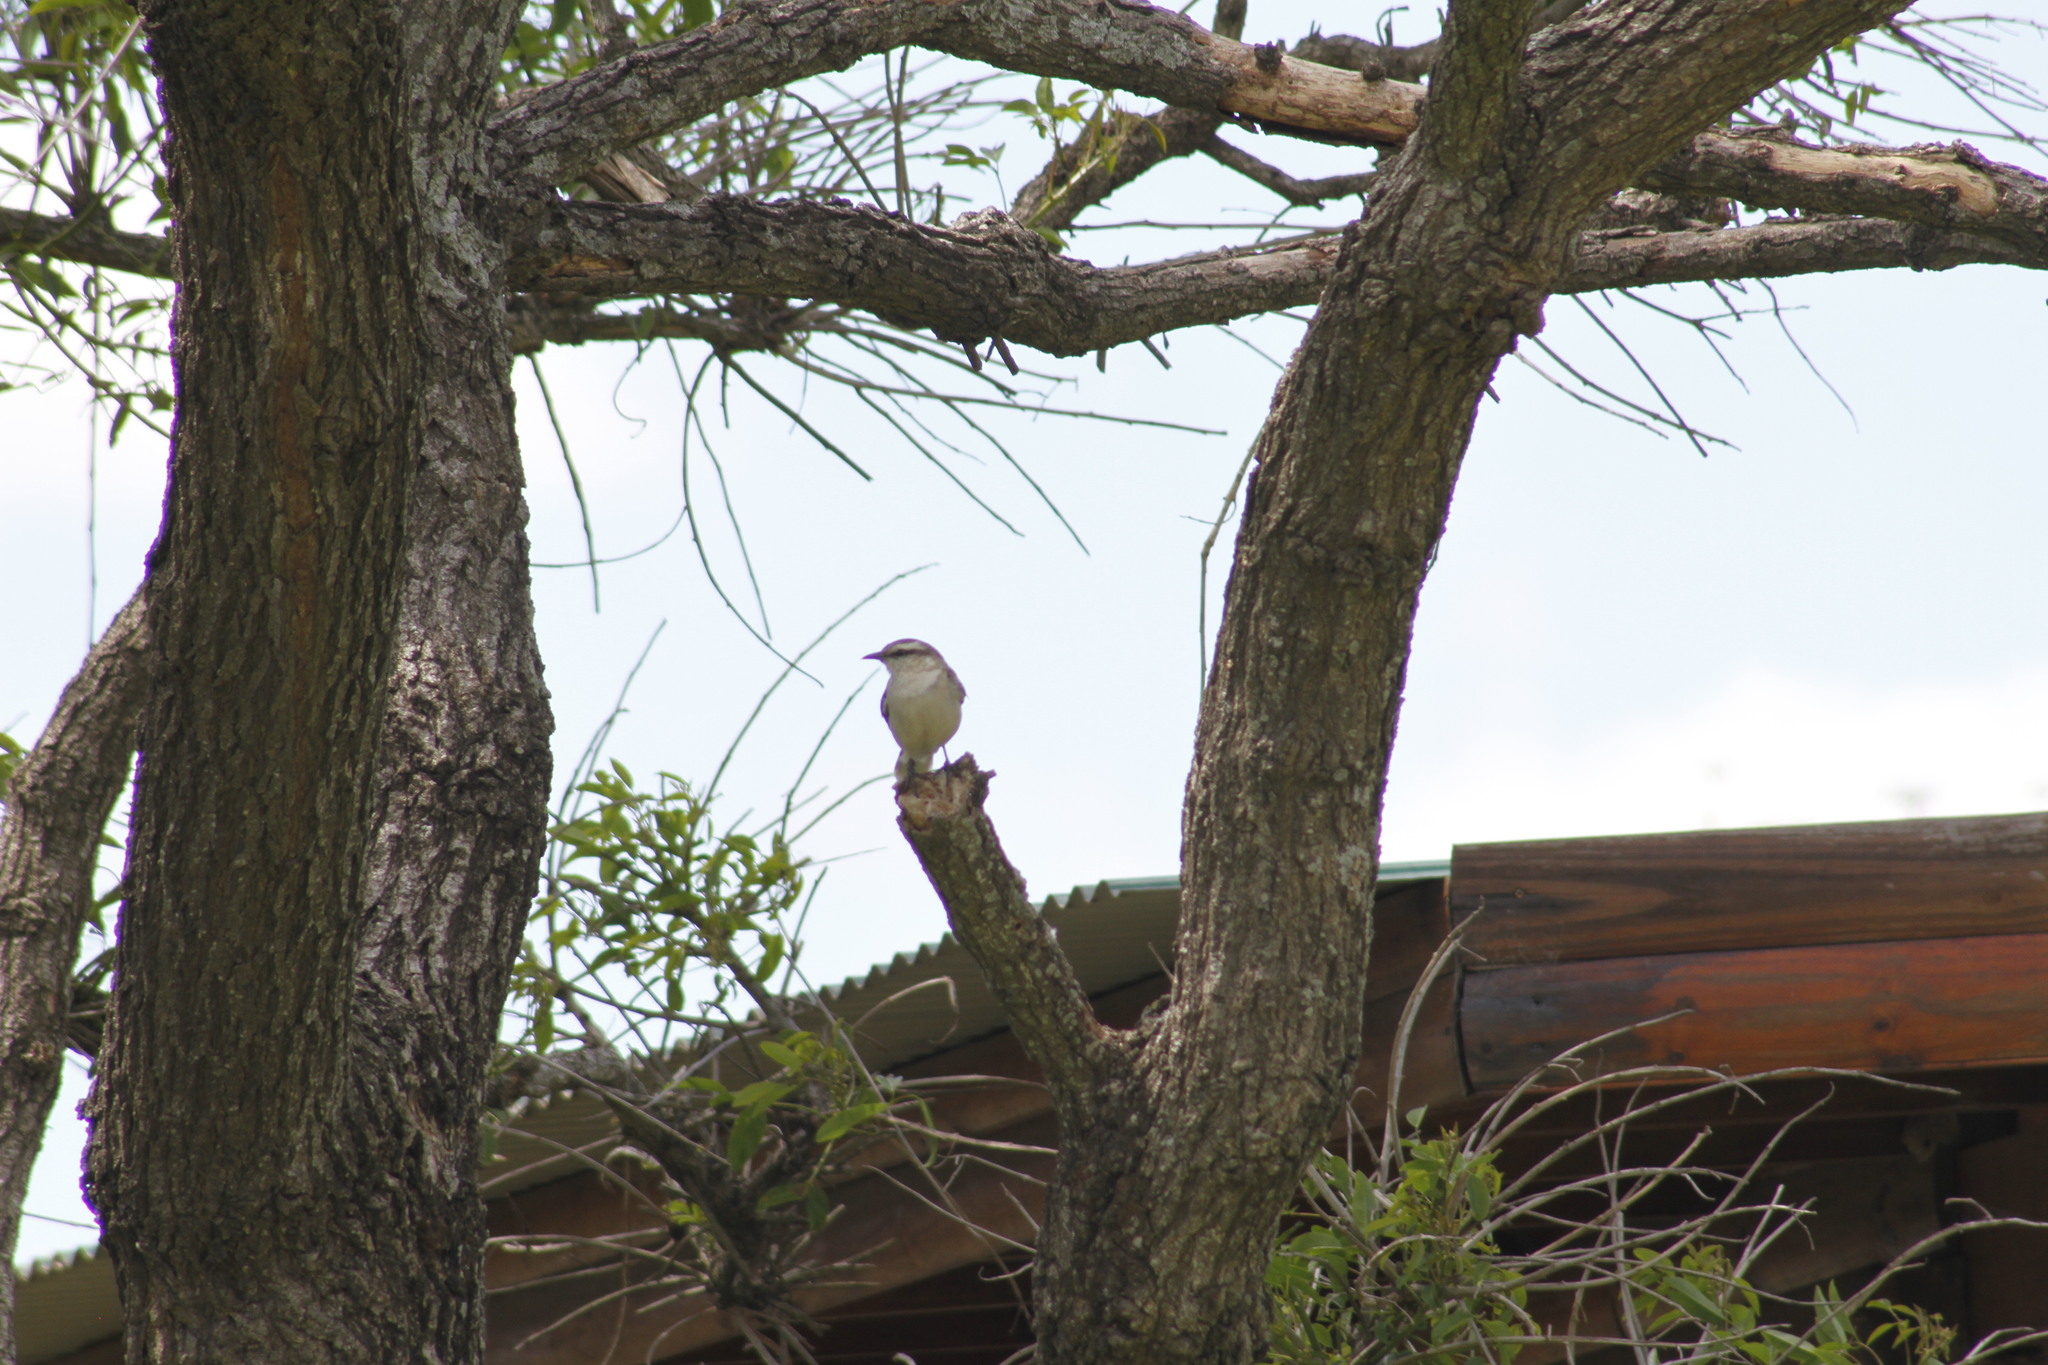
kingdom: Animalia
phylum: Chordata
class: Aves
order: Passeriformes
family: Mimidae
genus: Mimus
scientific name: Mimus saturninus
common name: Chalk-browed mockingbird
